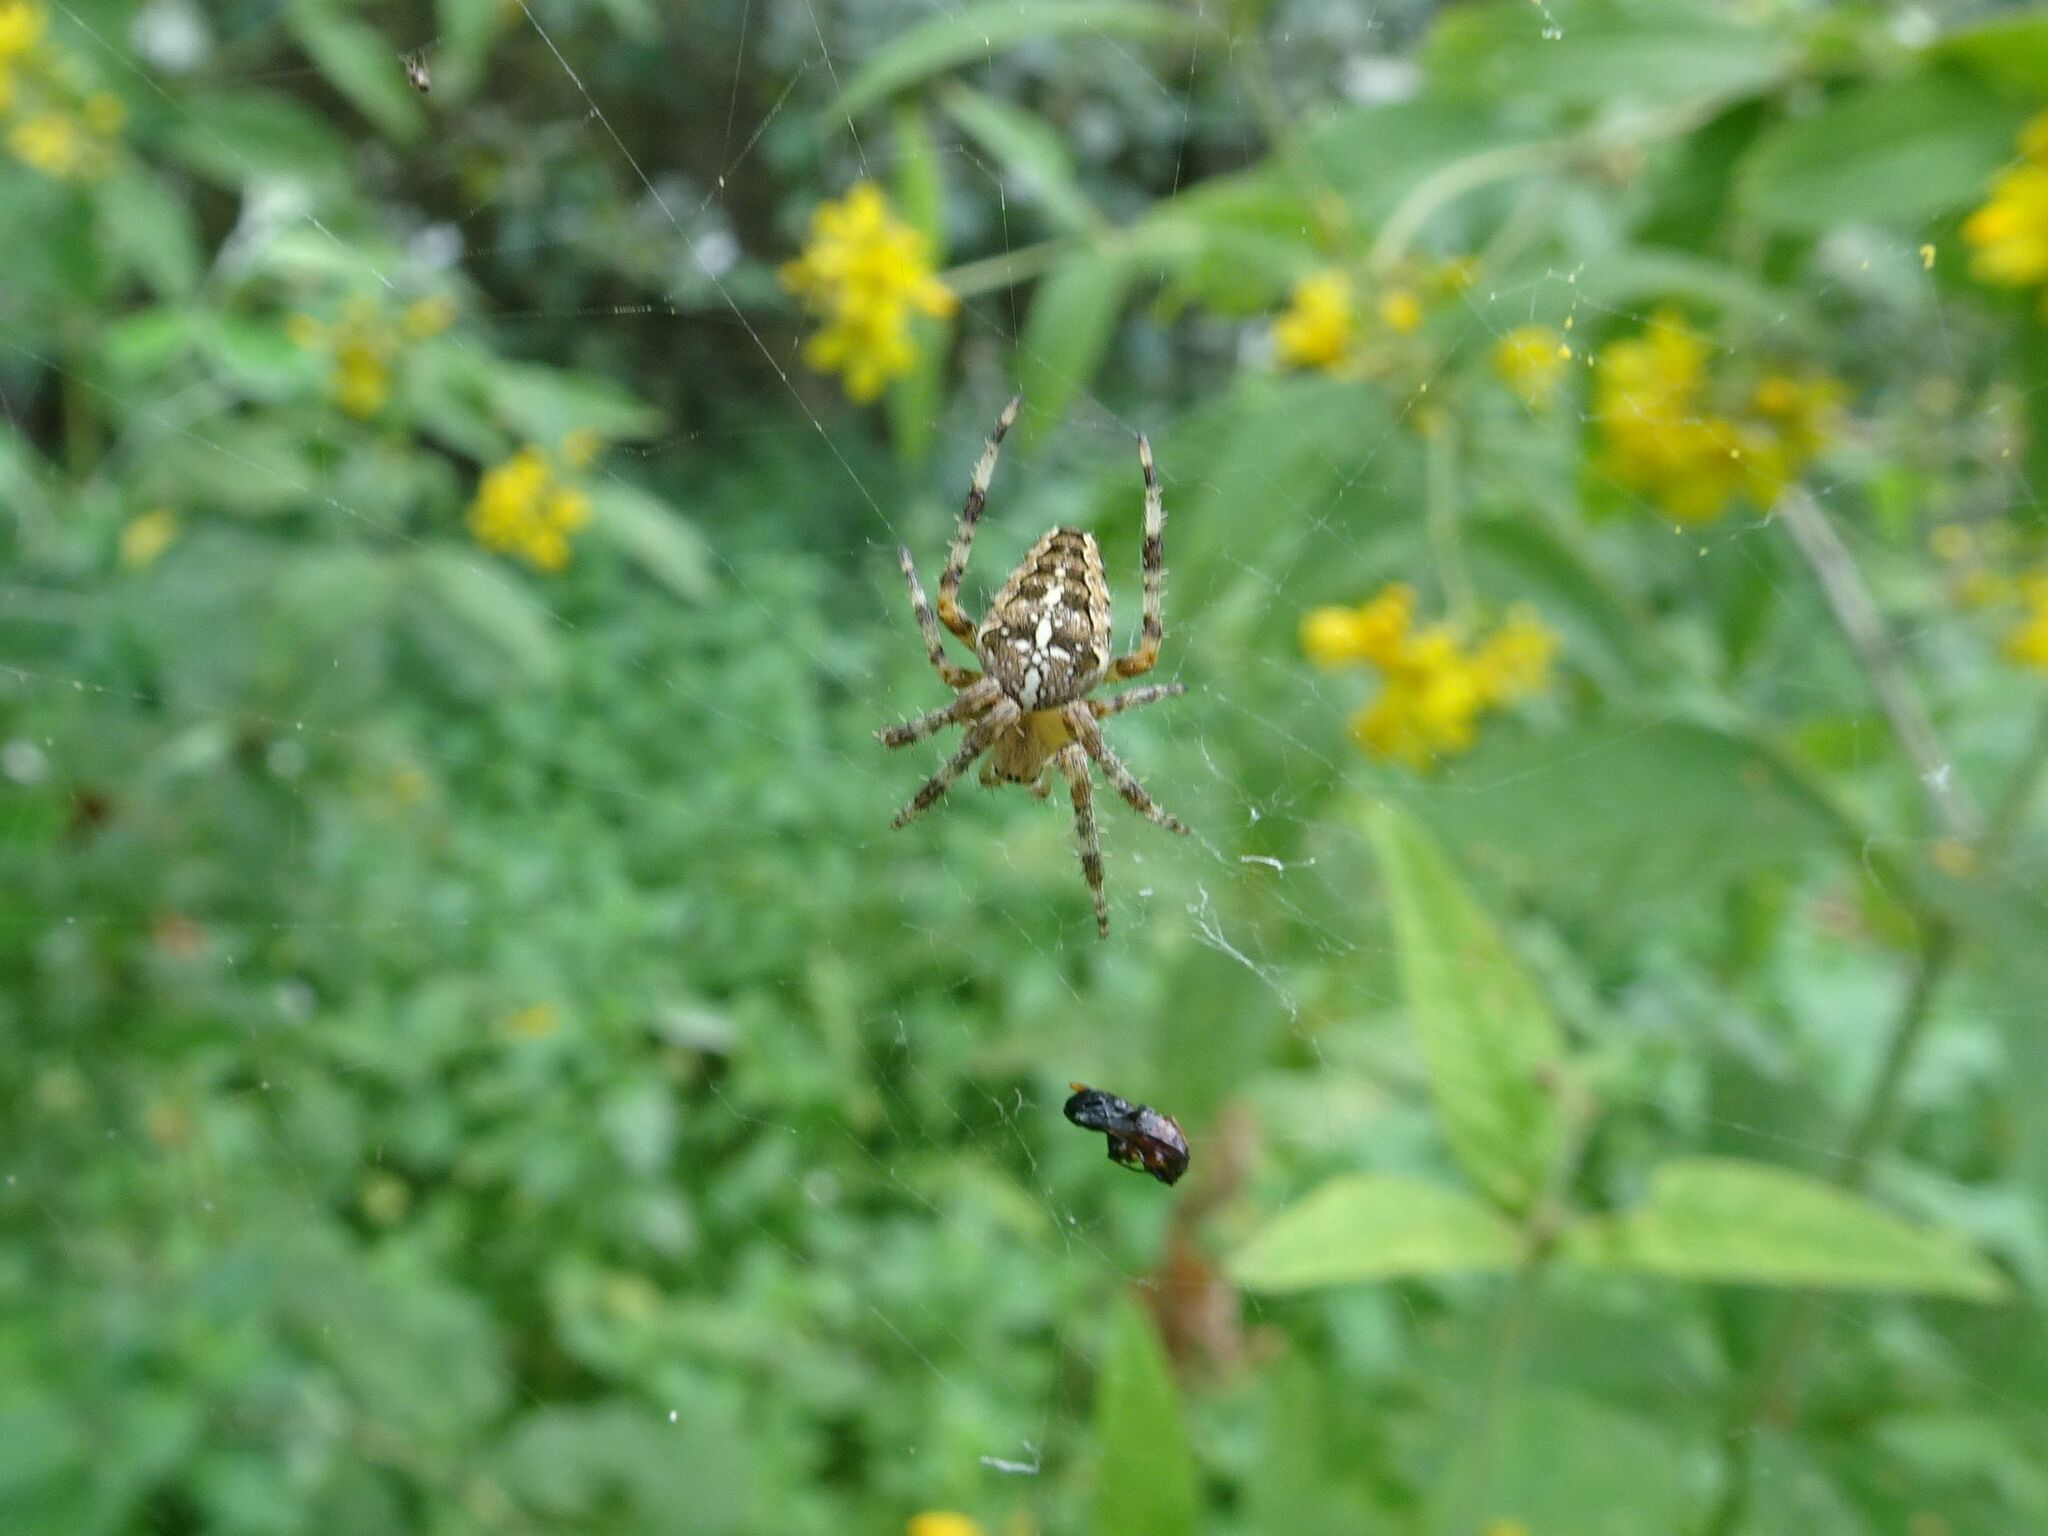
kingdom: Animalia
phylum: Arthropoda
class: Arachnida
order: Araneae
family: Araneidae
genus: Araneus
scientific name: Araneus diadematus
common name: Cross orbweaver
